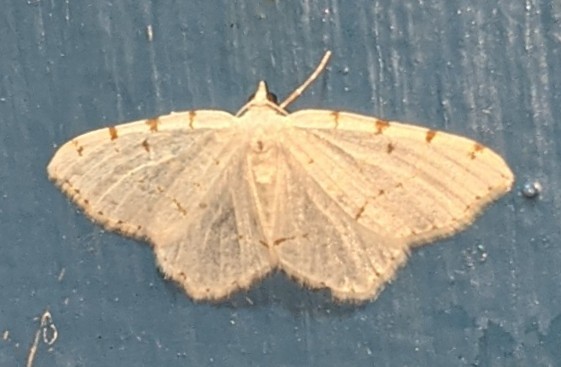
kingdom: Animalia
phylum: Arthropoda
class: Insecta
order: Lepidoptera
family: Geometridae
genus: Macaria
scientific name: Macaria pustularia
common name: Lesser maple spanworm moth
